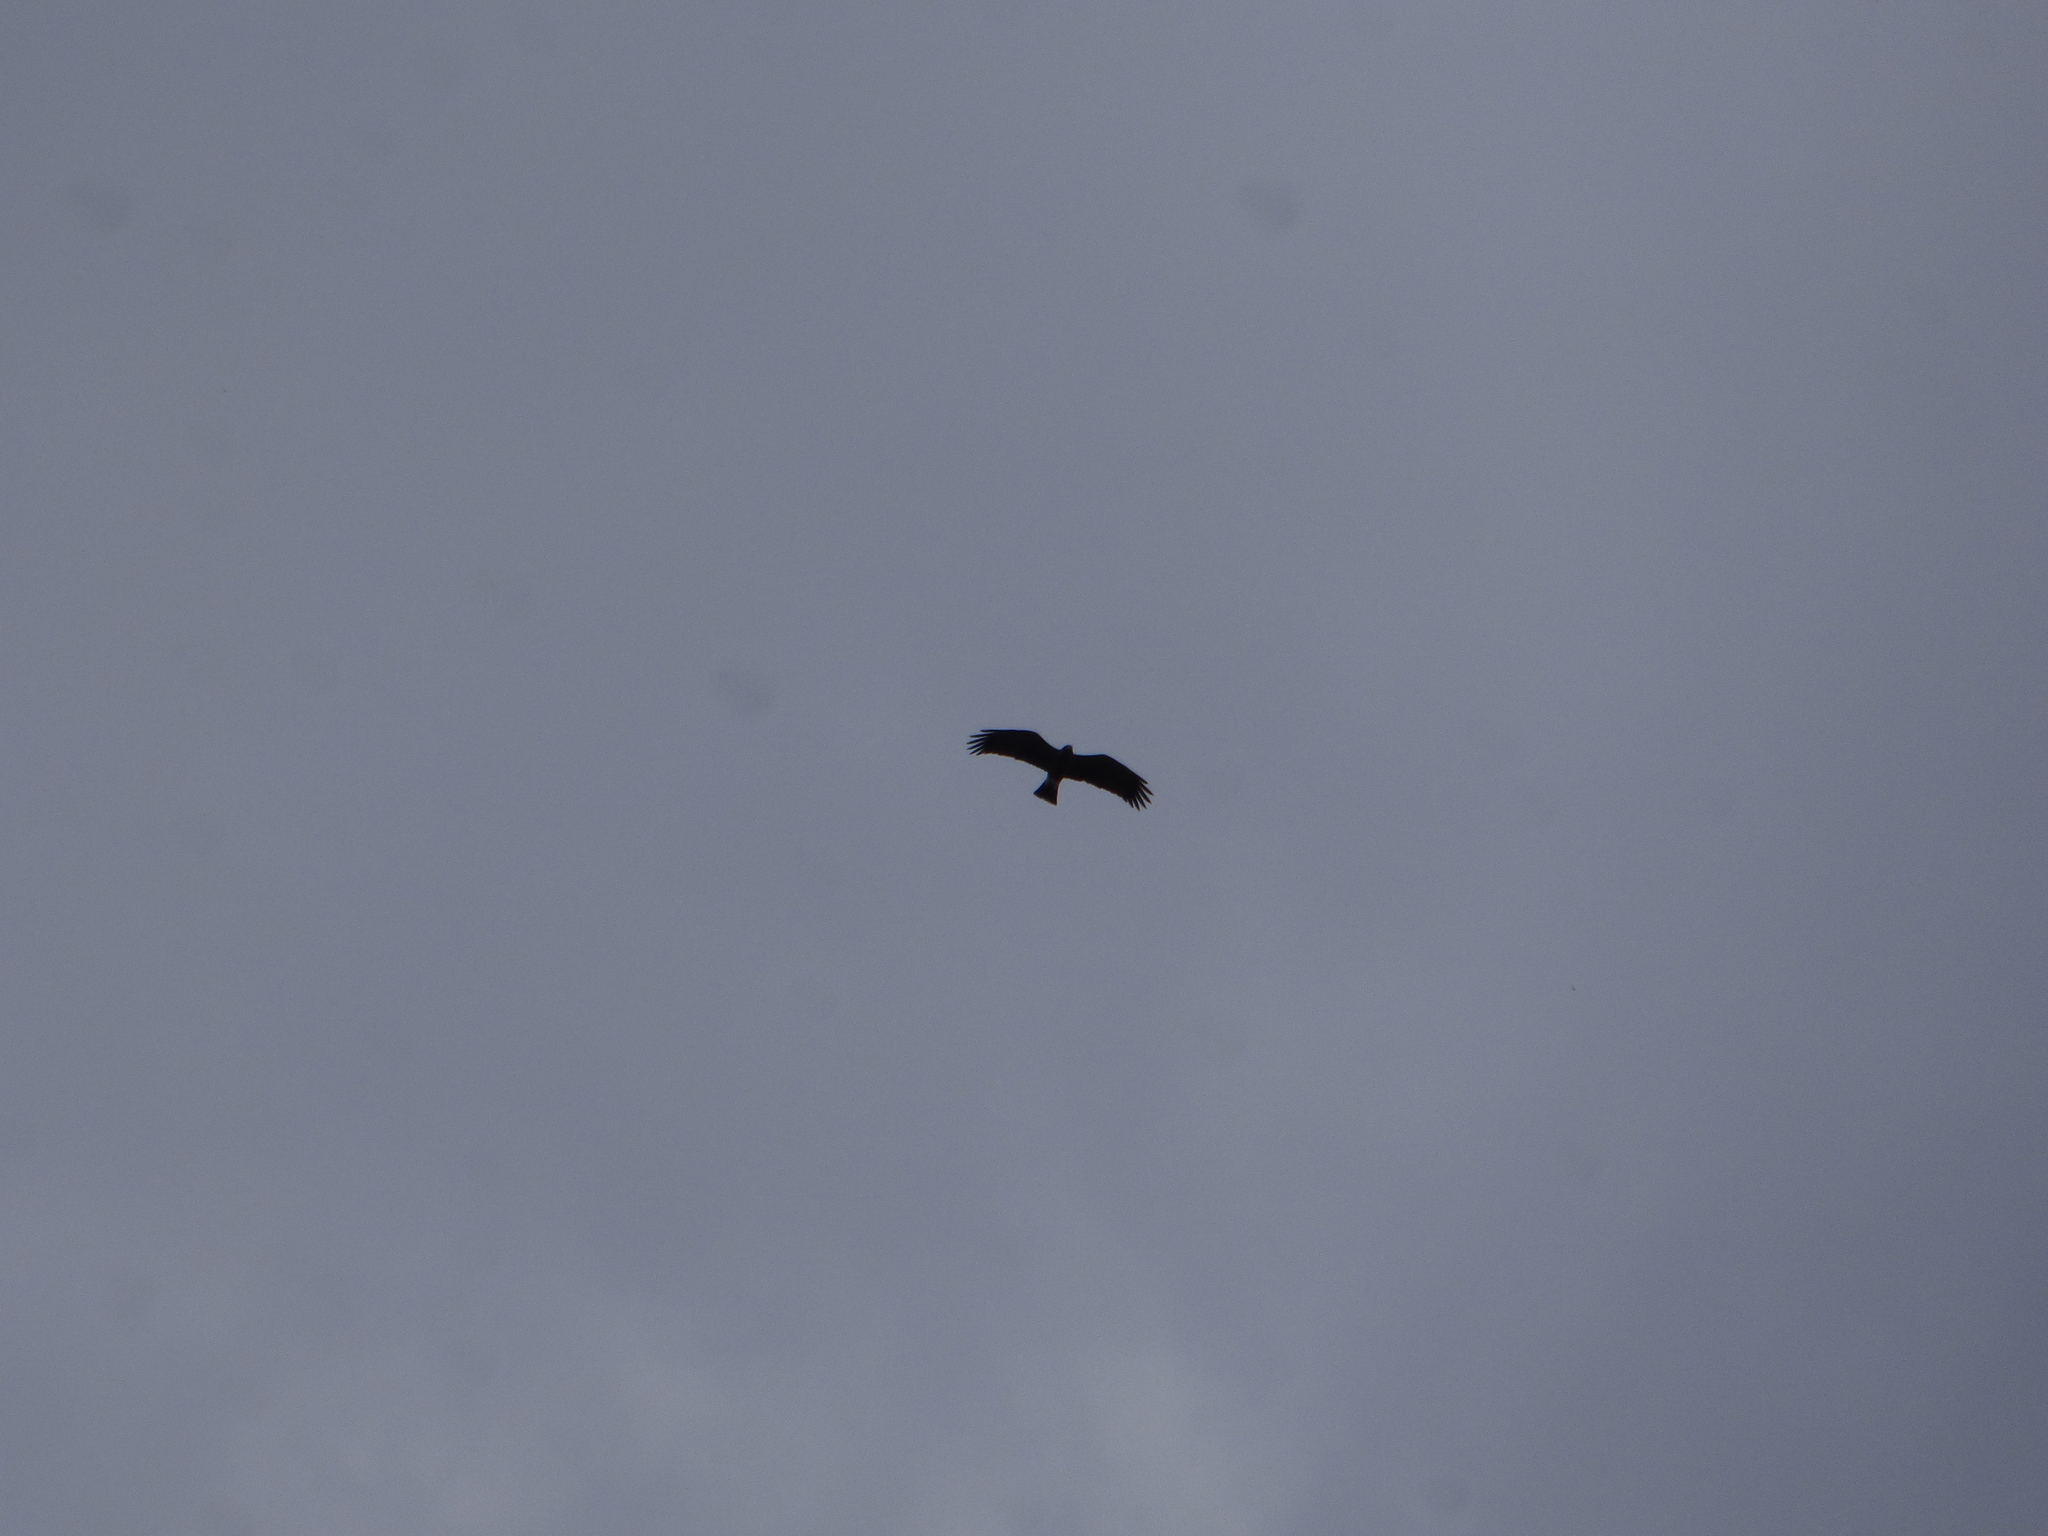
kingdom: Animalia
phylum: Chordata
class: Aves
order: Accipitriformes
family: Accipitridae
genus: Rostrhamus
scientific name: Rostrhamus sociabilis
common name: Snail kite
